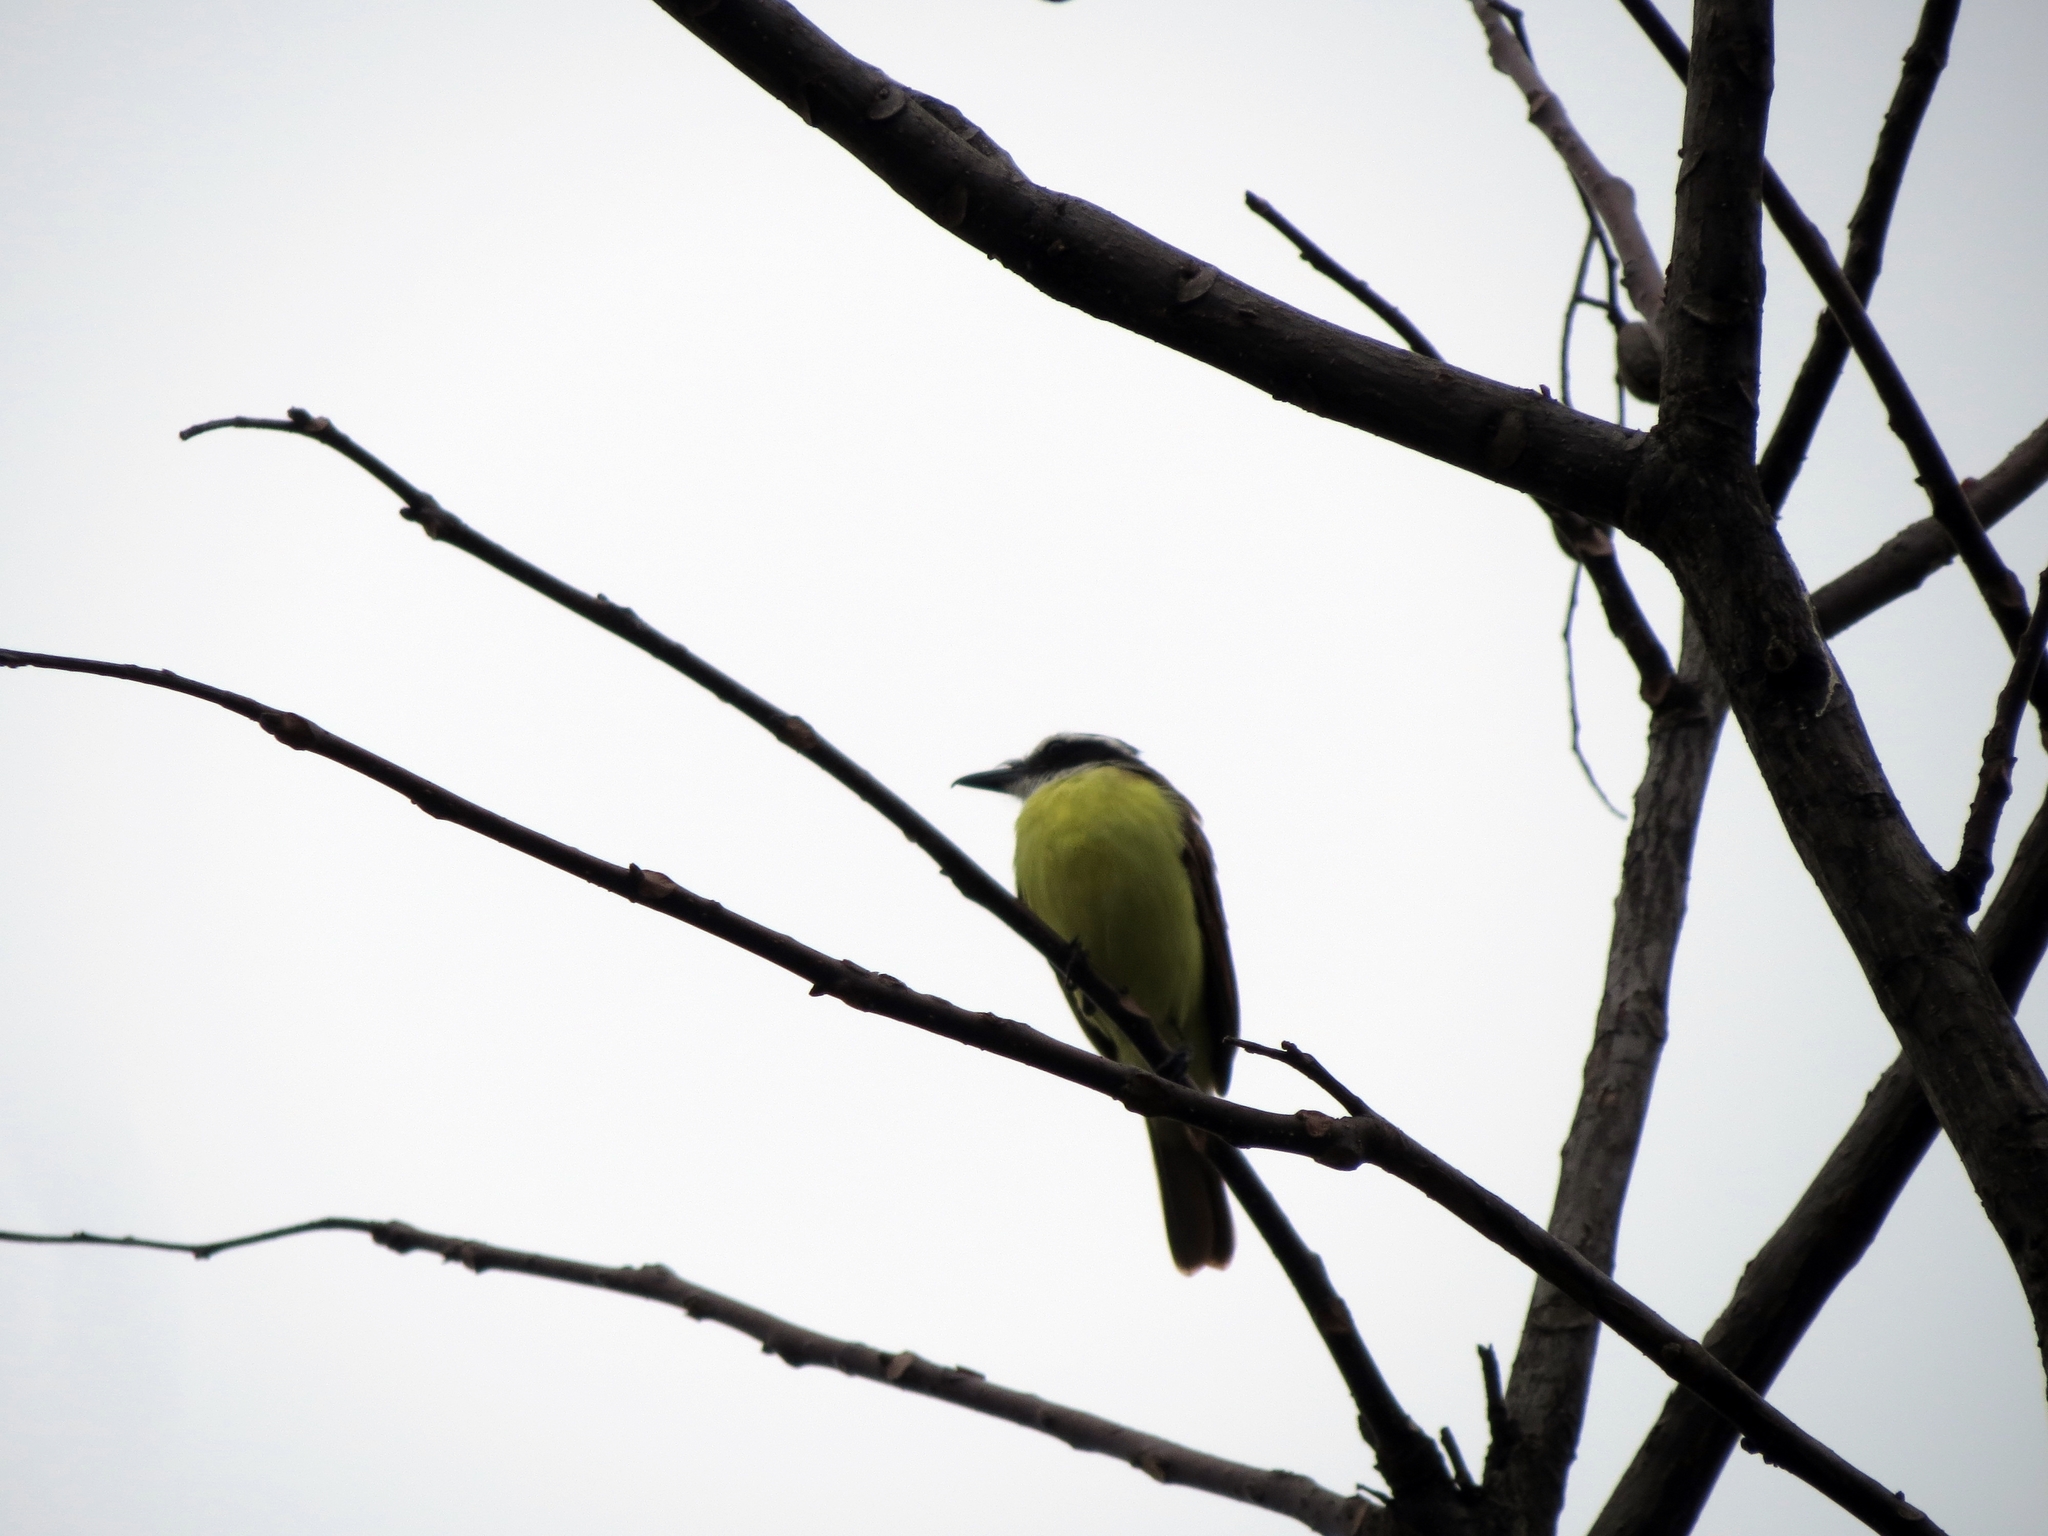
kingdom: Animalia
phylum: Chordata
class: Aves
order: Passeriformes
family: Tyrannidae
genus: Pitangus
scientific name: Pitangus sulphuratus
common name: Great kiskadee
